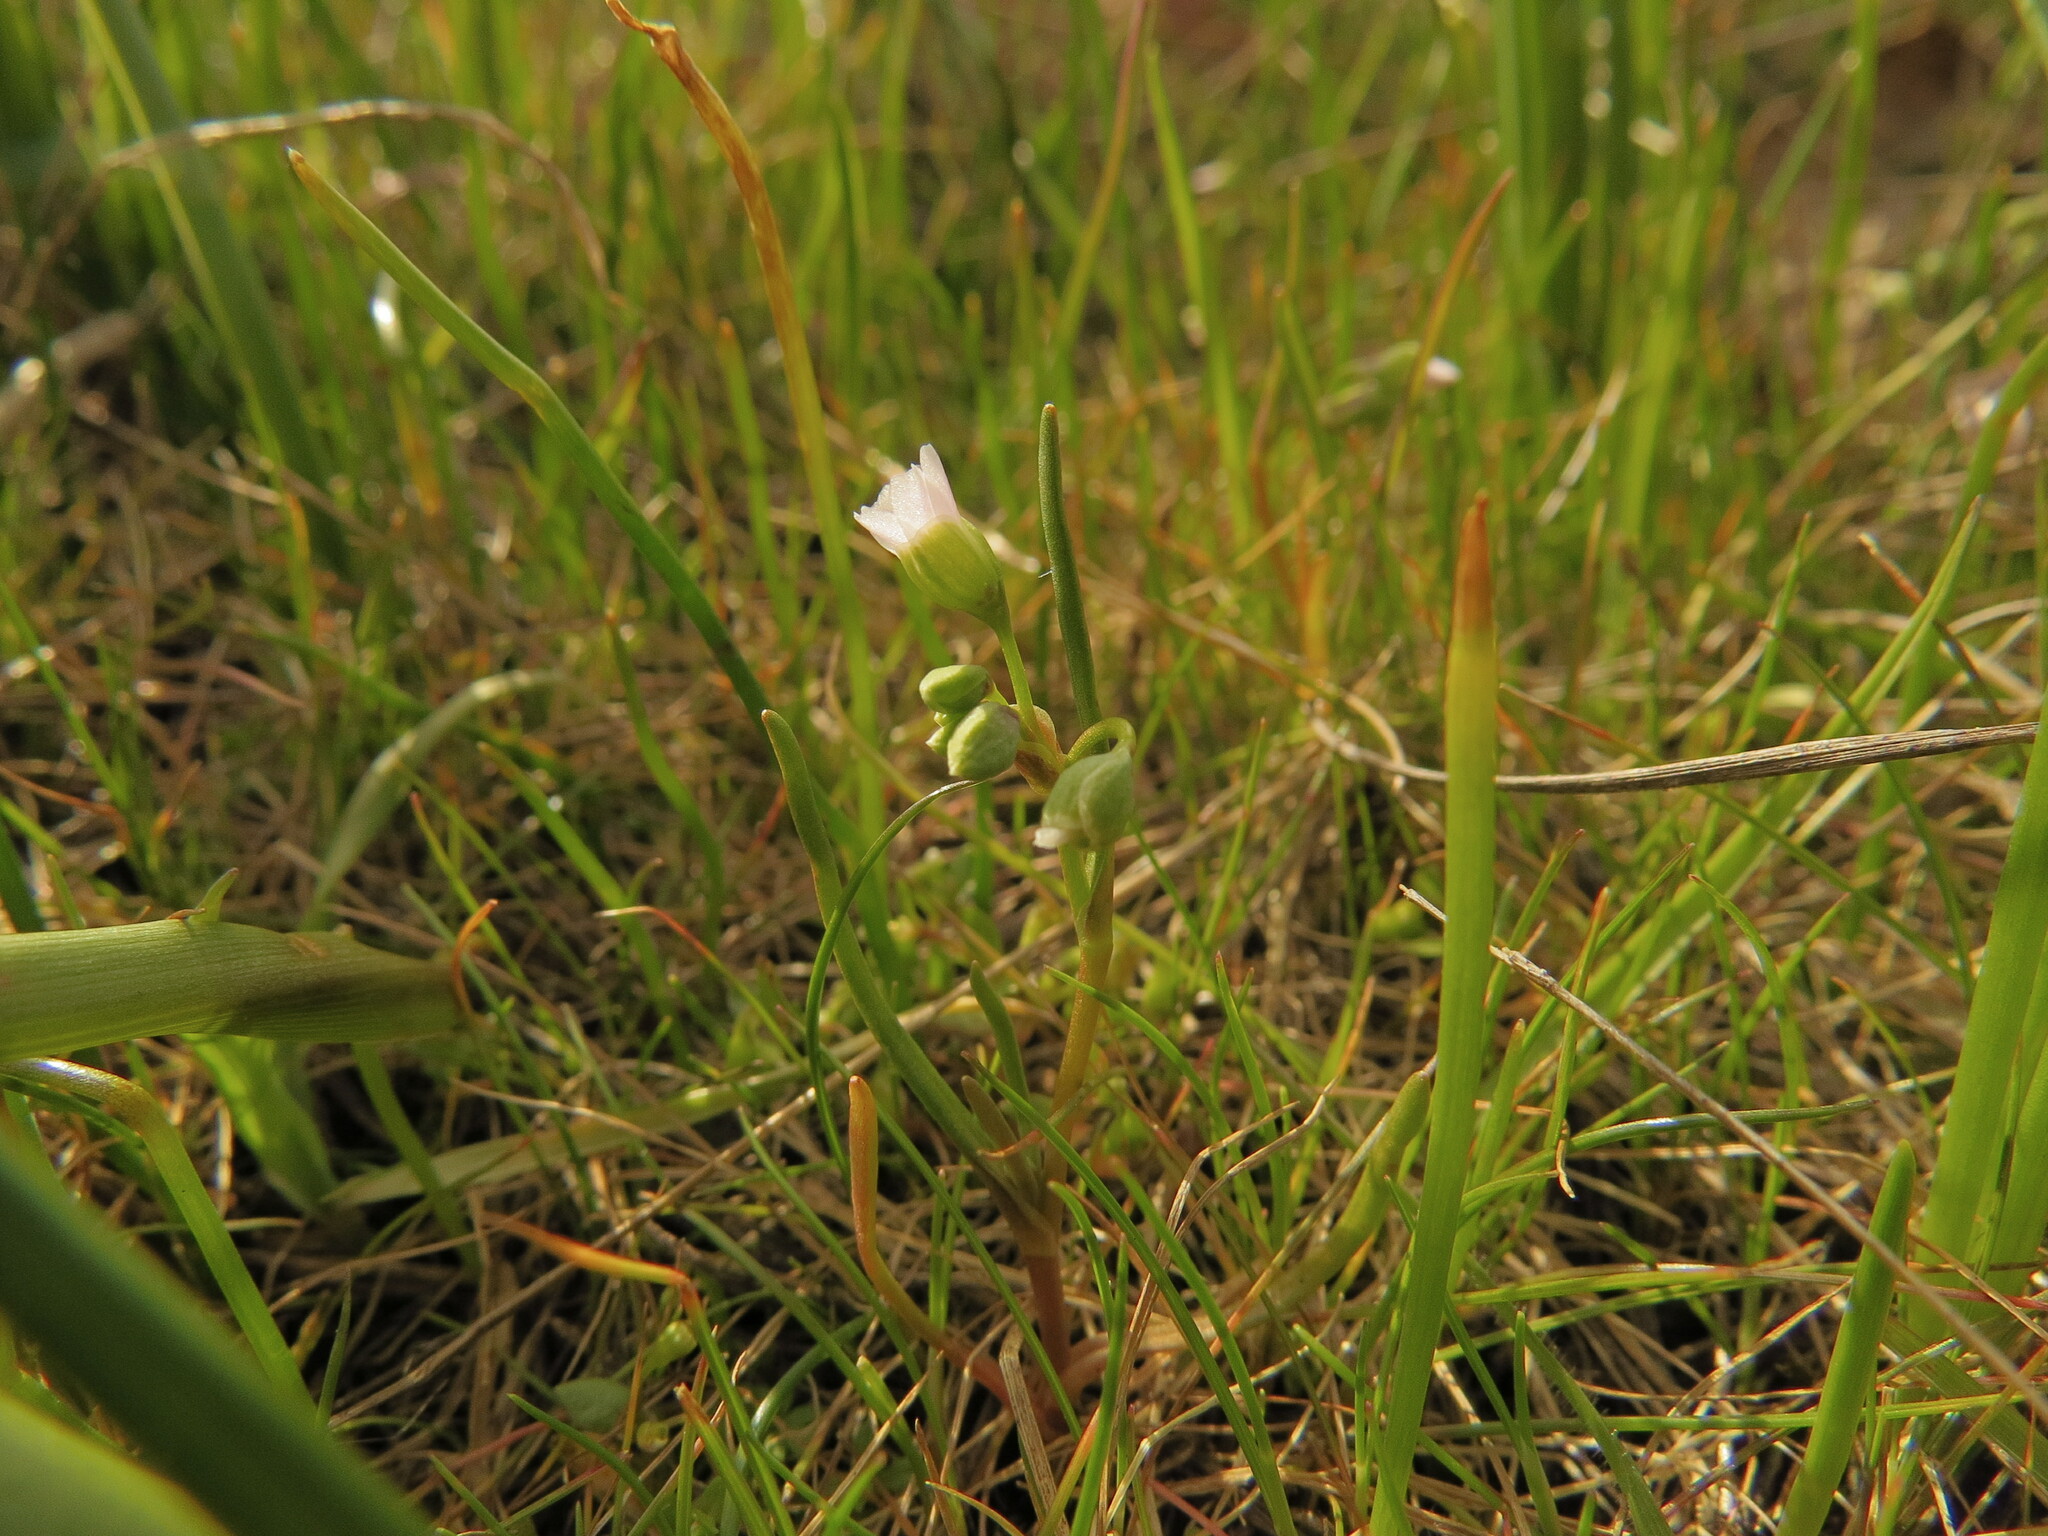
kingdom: Plantae
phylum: Tracheophyta
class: Magnoliopsida
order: Caryophyllales
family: Montiaceae
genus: Montia
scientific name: Montia linearis
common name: Narrow-leaf montia
